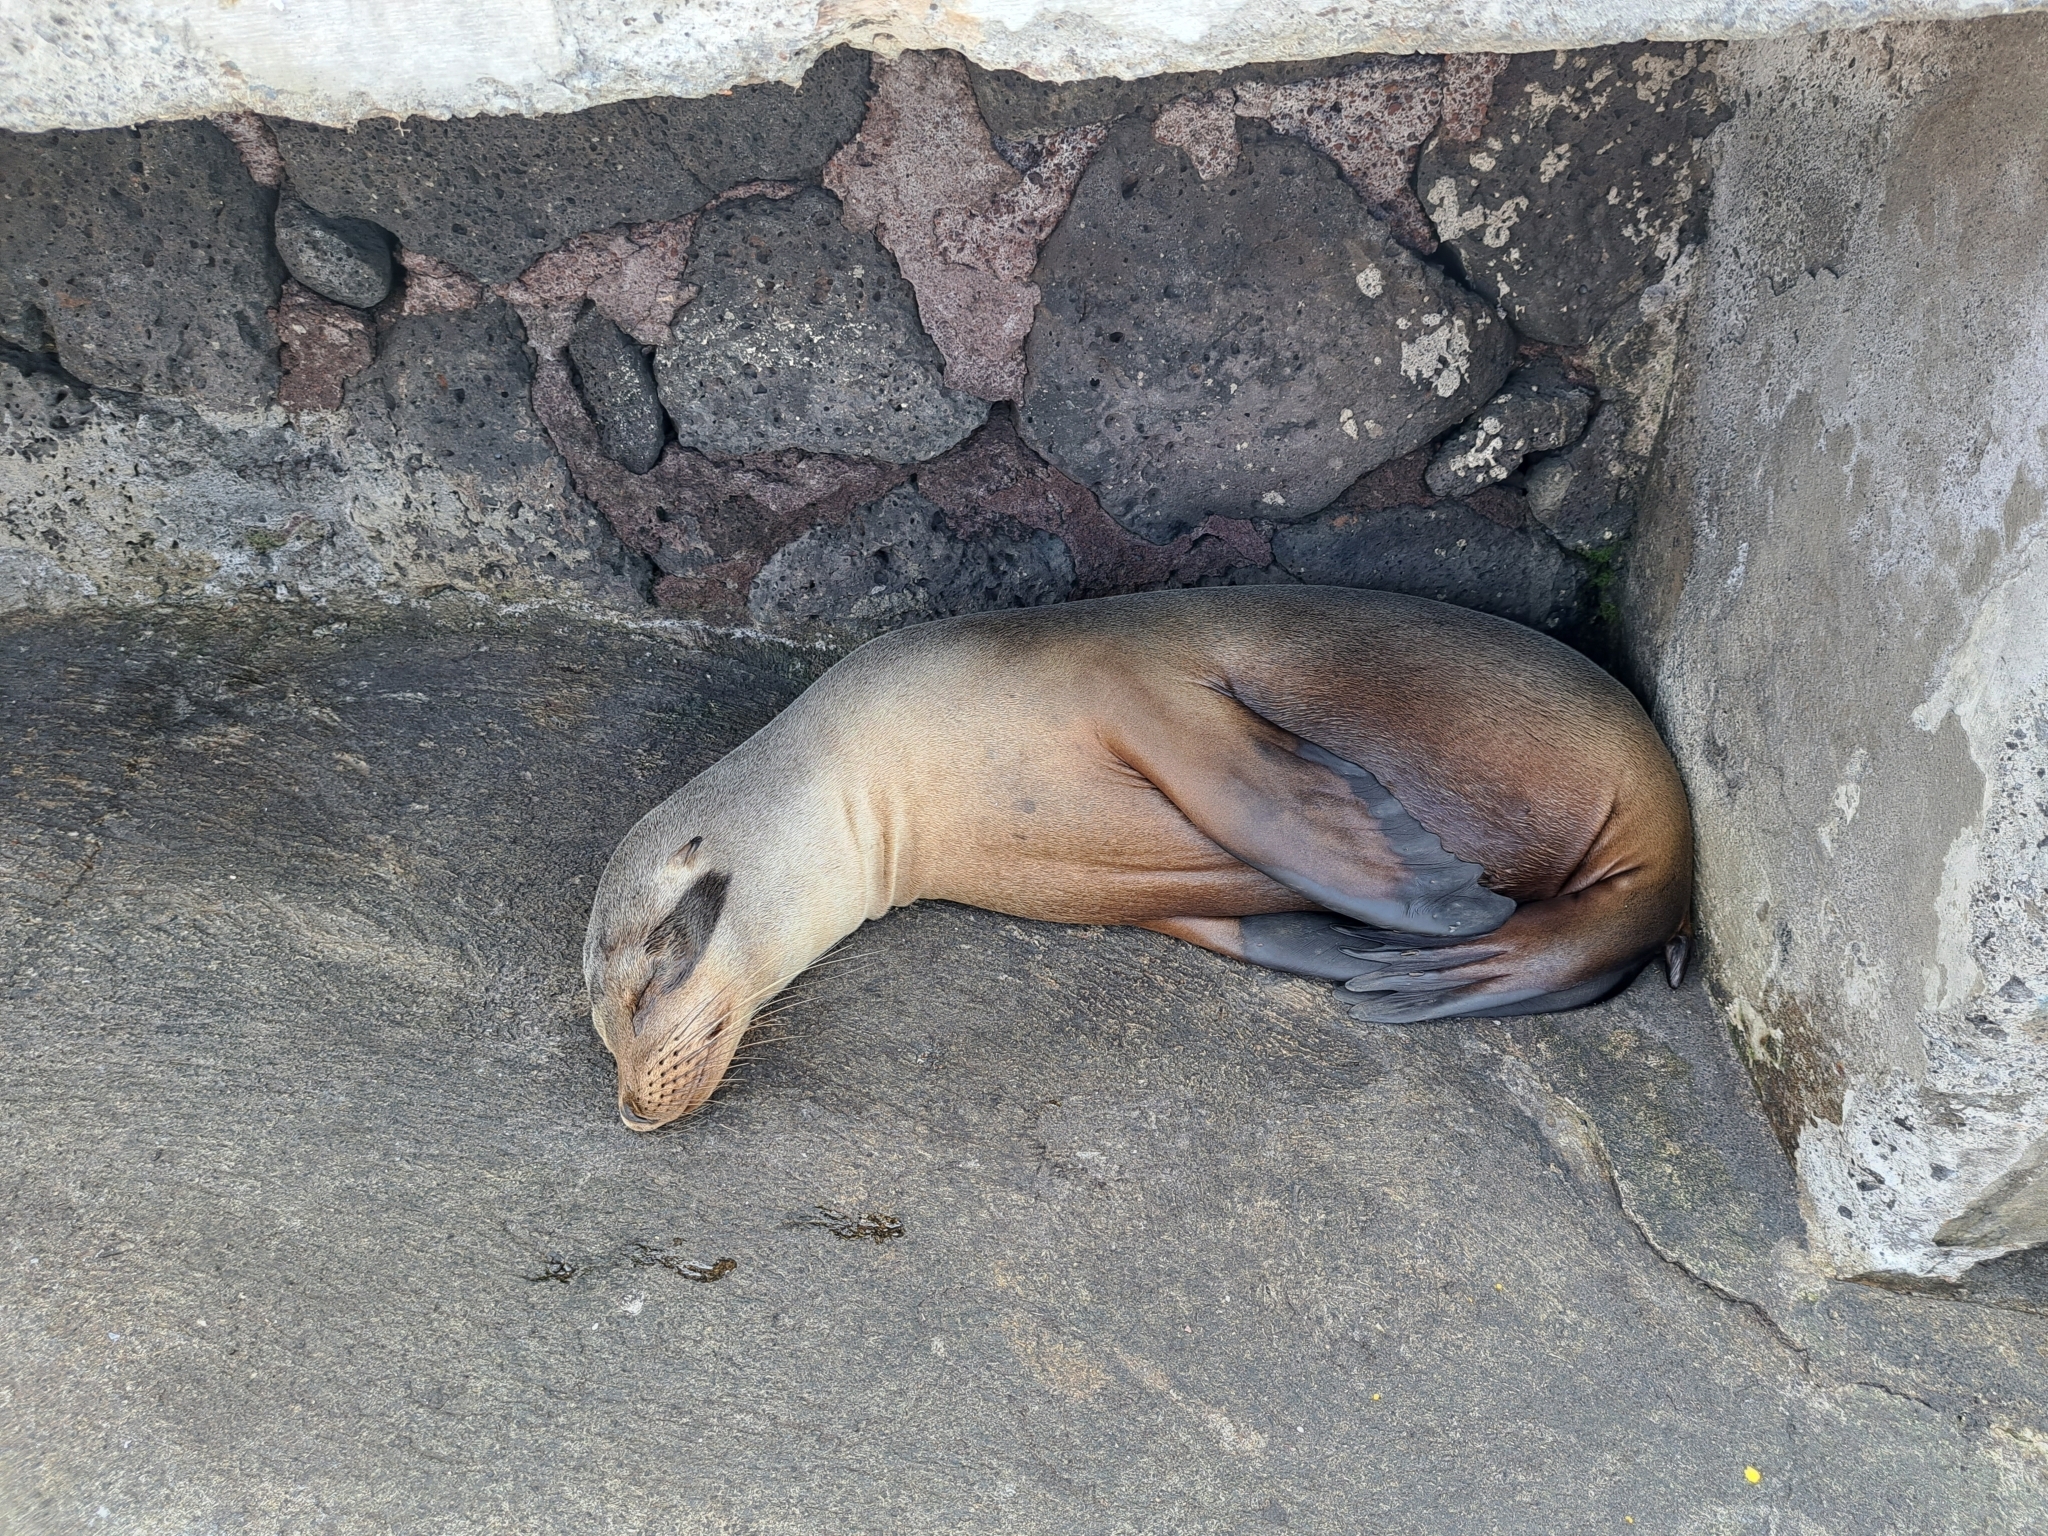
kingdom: Animalia
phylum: Chordata
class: Mammalia
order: Carnivora
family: Otariidae
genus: Zalophus
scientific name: Zalophus wollebaeki
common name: Galapagos sea lion
